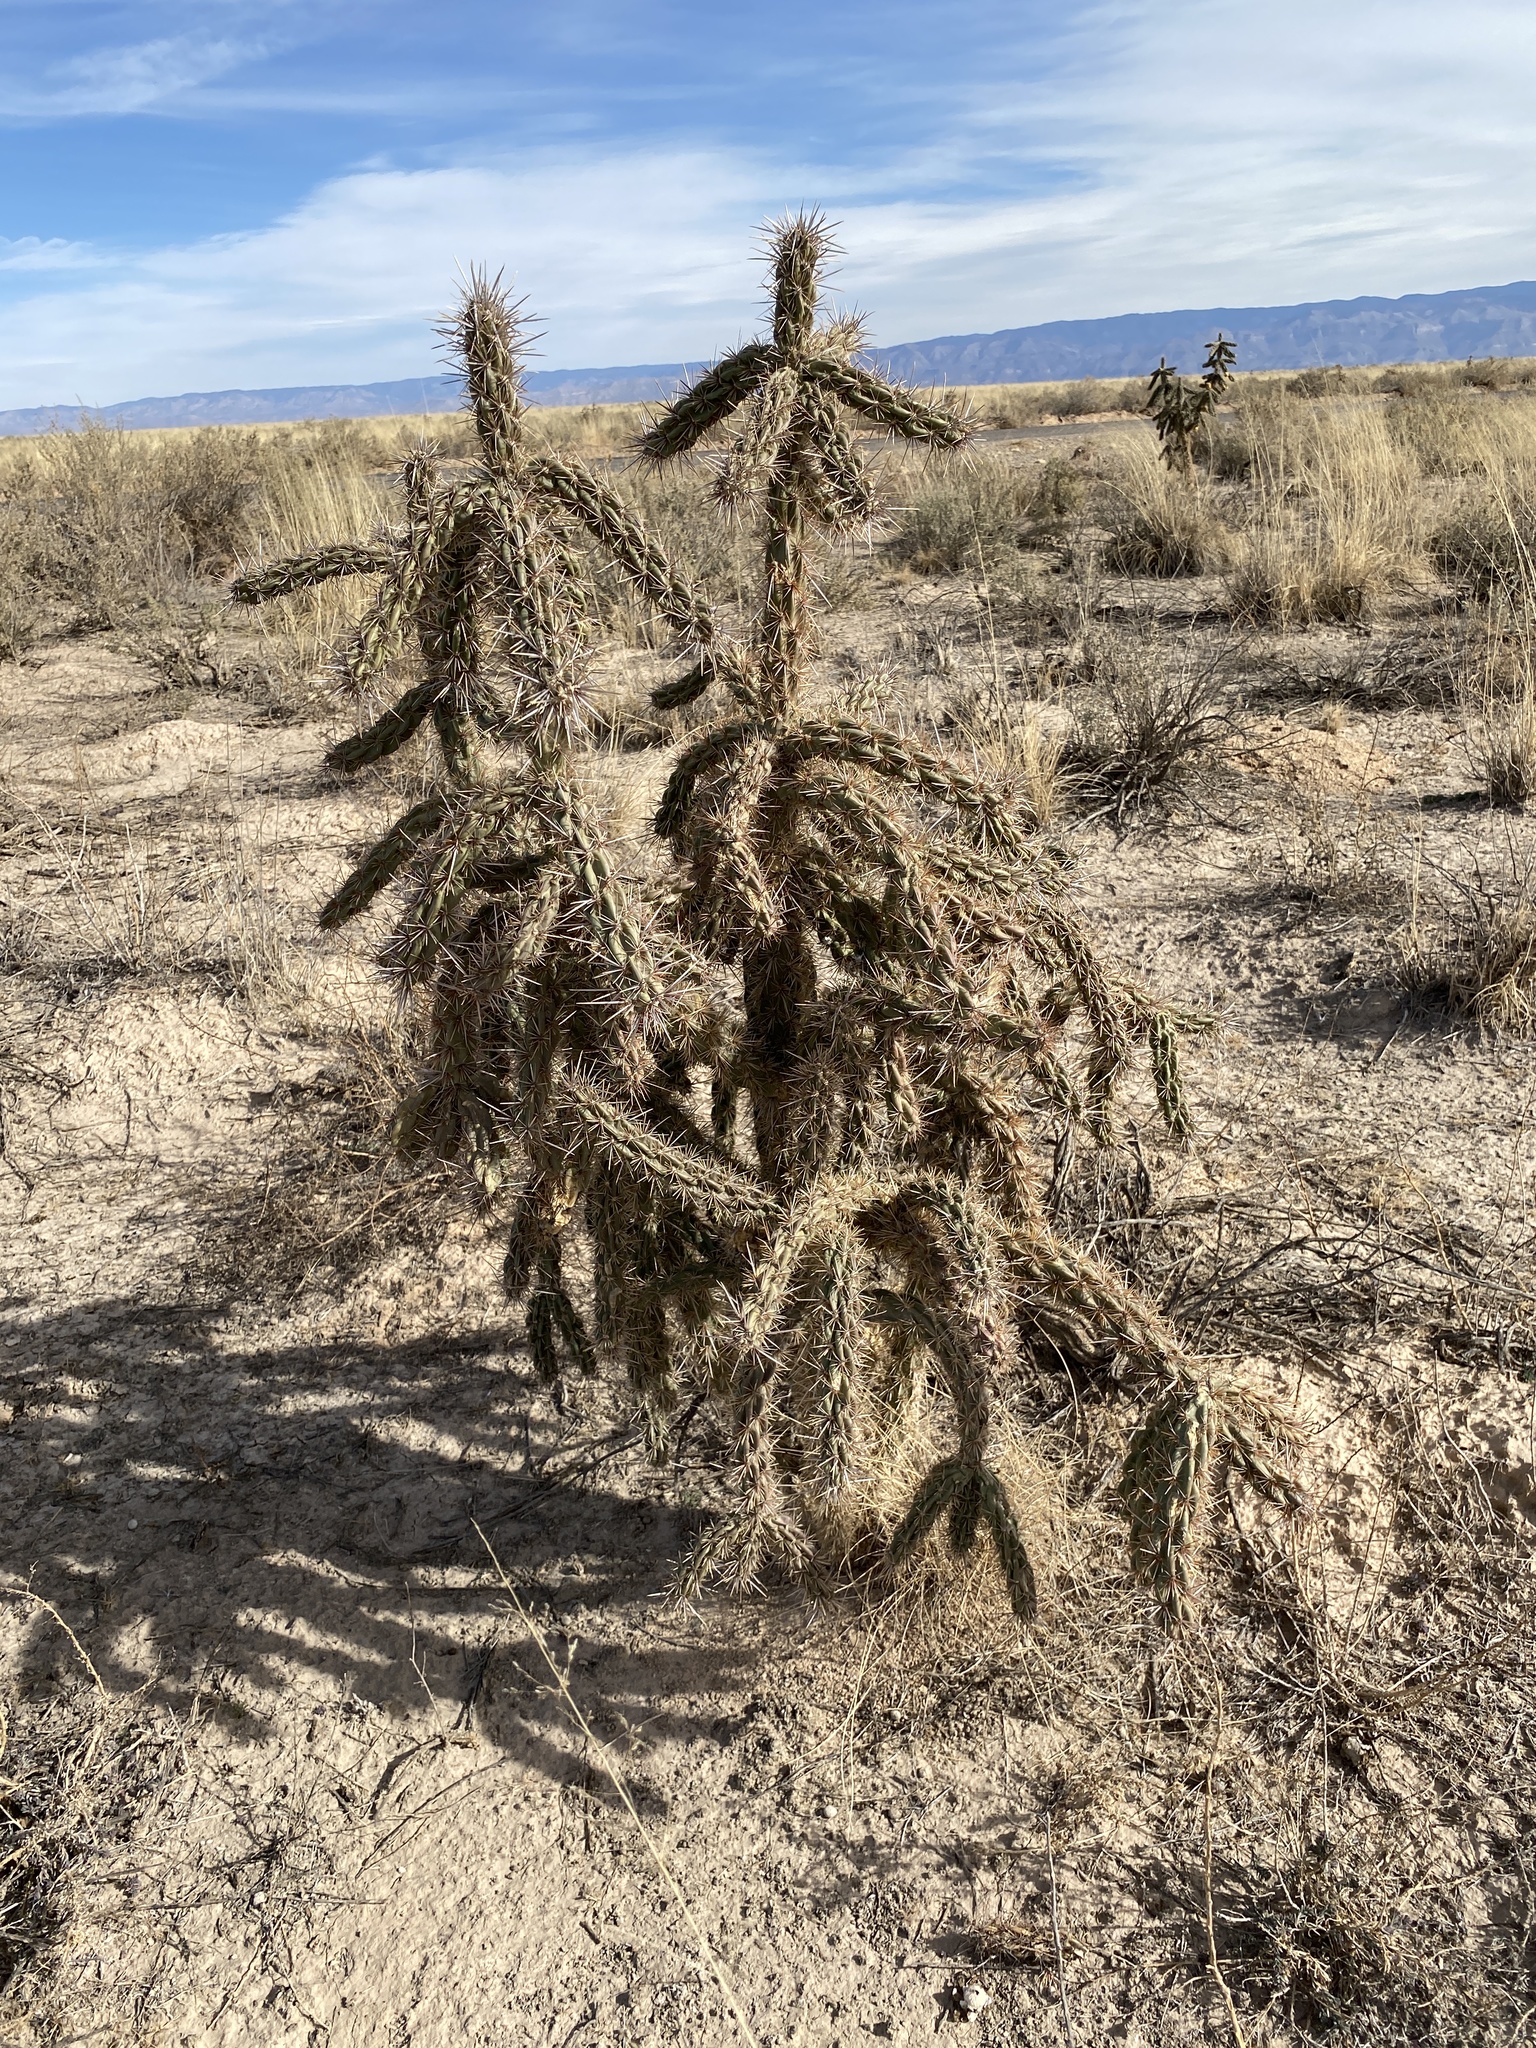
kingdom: Plantae
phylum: Tracheophyta
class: Magnoliopsida
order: Caryophyllales
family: Cactaceae
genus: Cylindropuntia
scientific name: Cylindropuntia imbricata
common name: Candelabrum cactus
